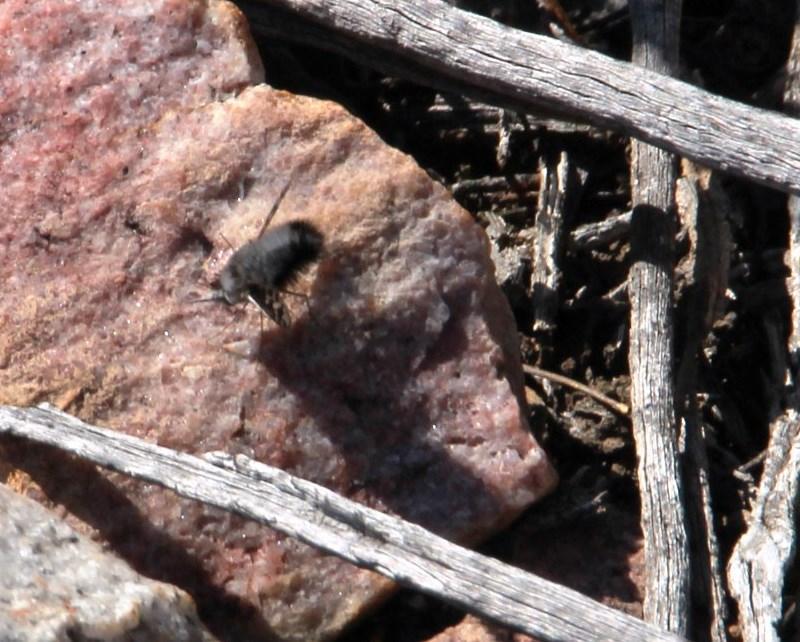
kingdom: Animalia
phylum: Arthropoda
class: Insecta
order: Diptera
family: Bombyliidae
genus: Australoechus
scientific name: Australoechus megaspilus
